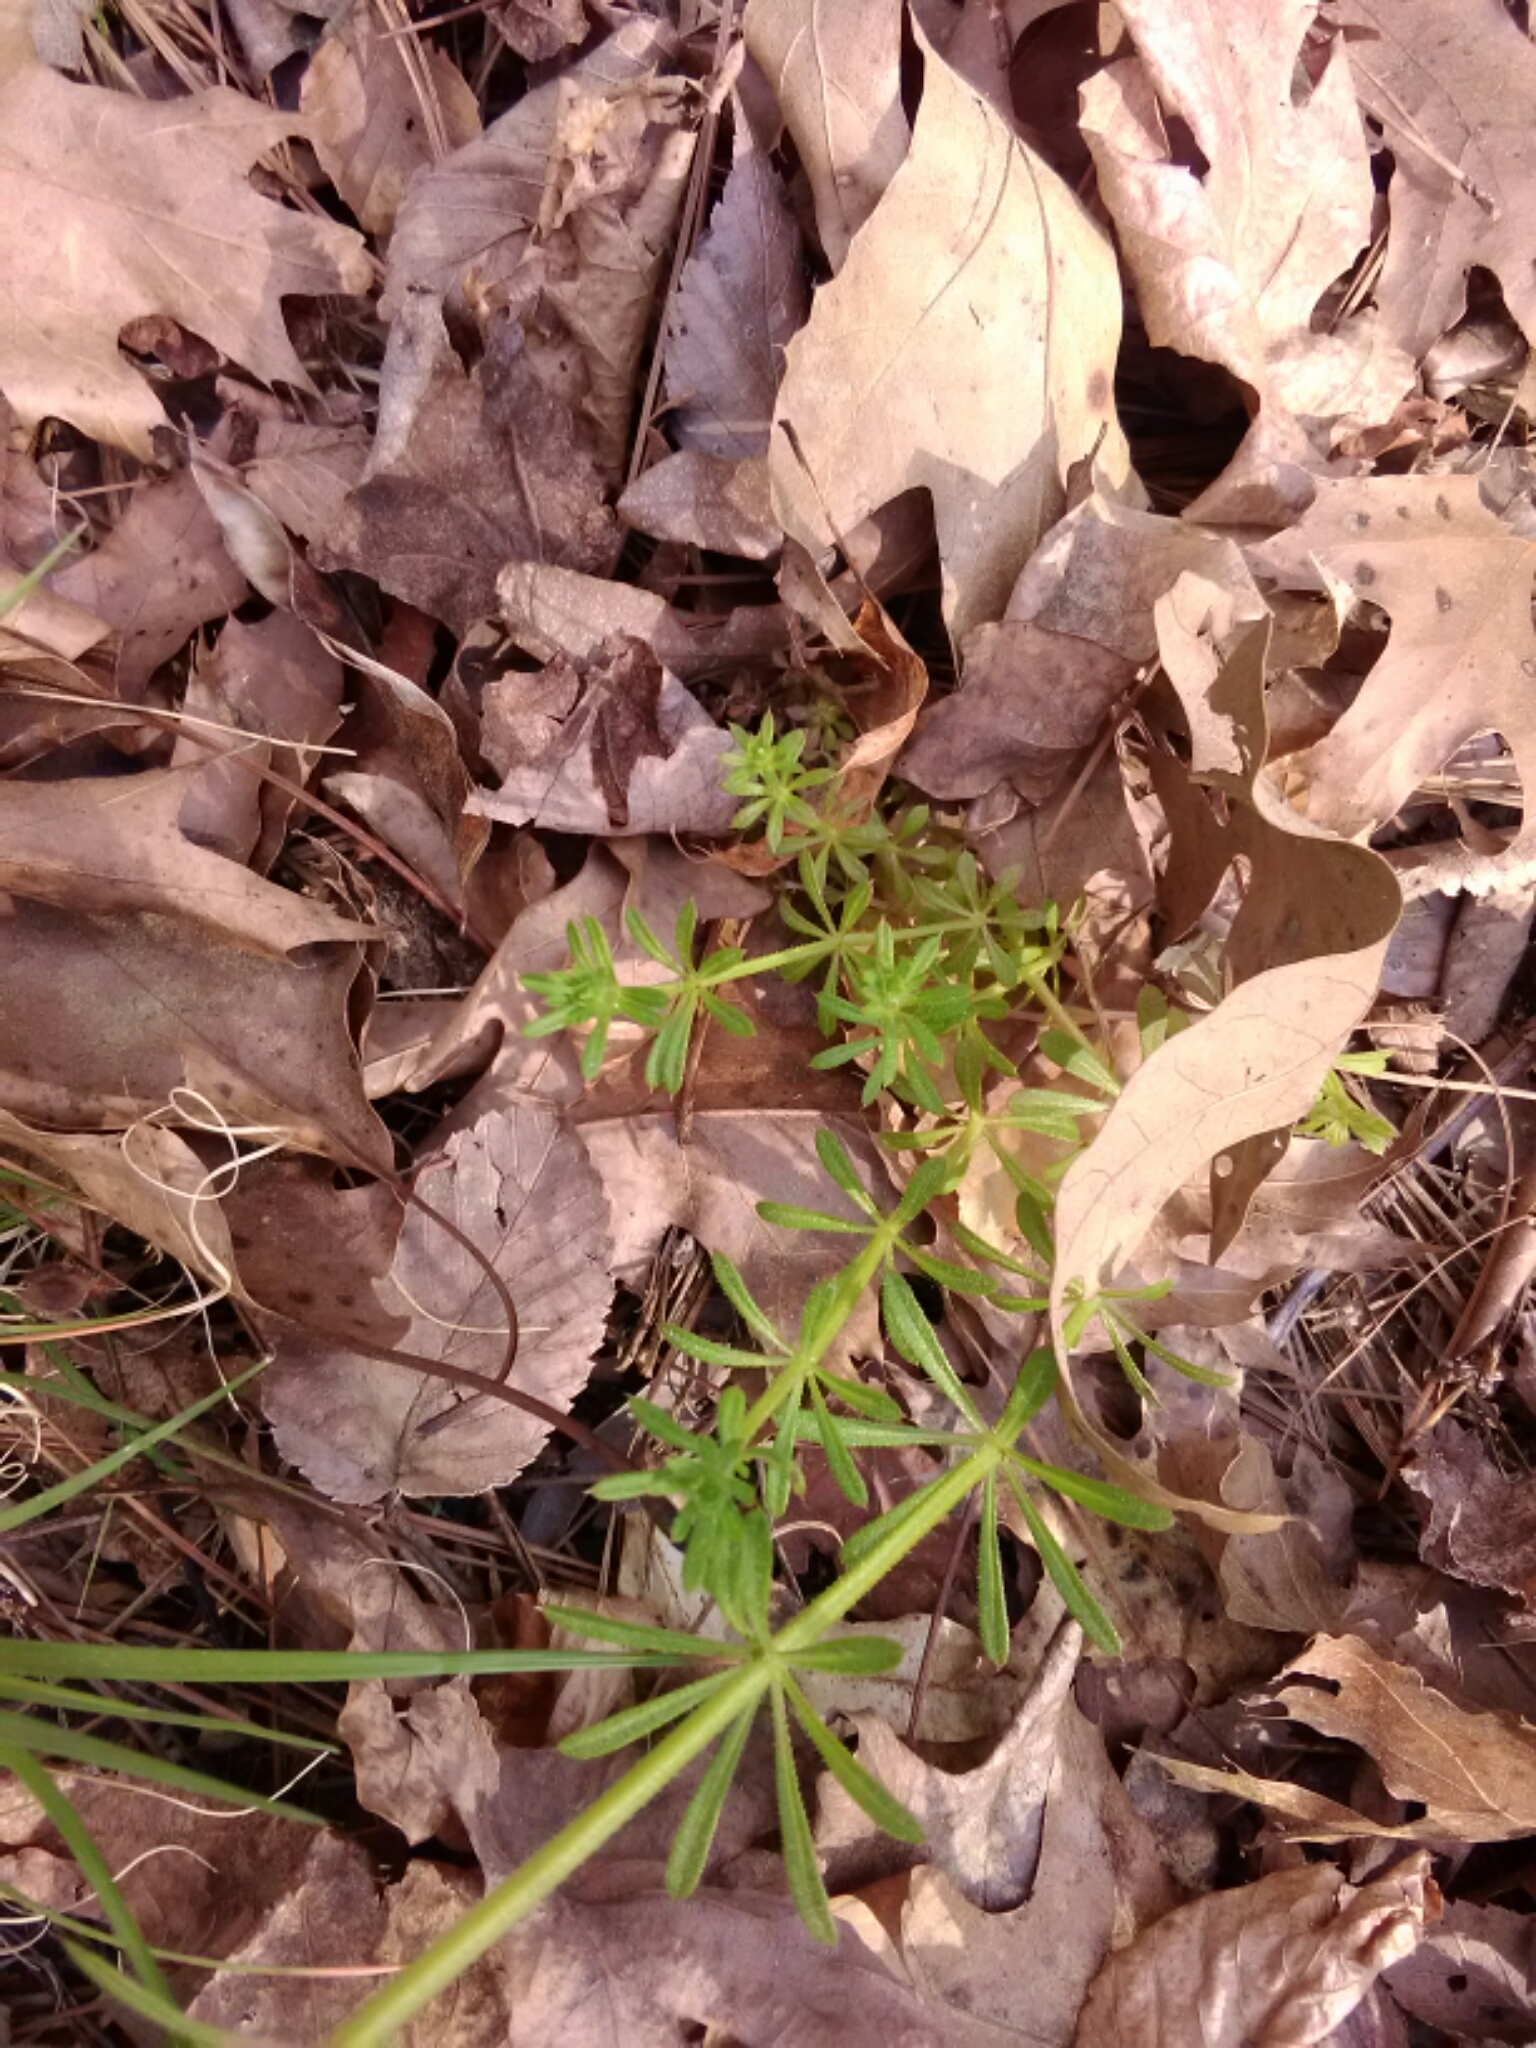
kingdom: Plantae
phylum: Tracheophyta
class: Magnoliopsida
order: Gentianales
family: Rubiaceae
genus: Galium
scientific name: Galium aparine
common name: Cleavers
